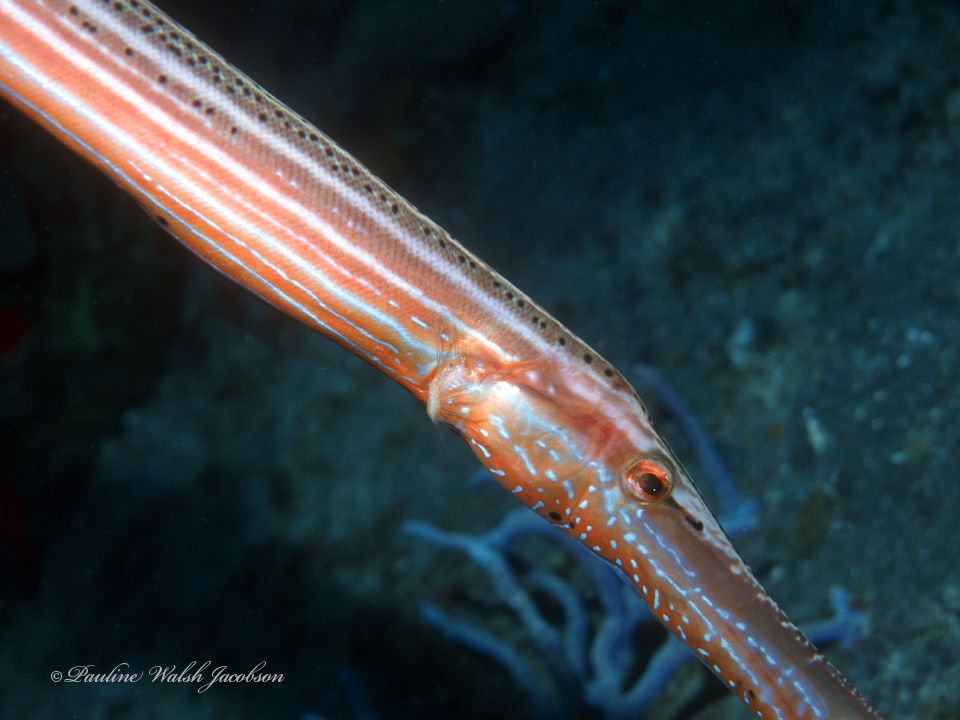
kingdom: Animalia
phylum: Chordata
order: Syngnathiformes
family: Aulostomidae
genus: Aulostomus
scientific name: Aulostomus maculatus
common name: West atlantic trumpetfish
